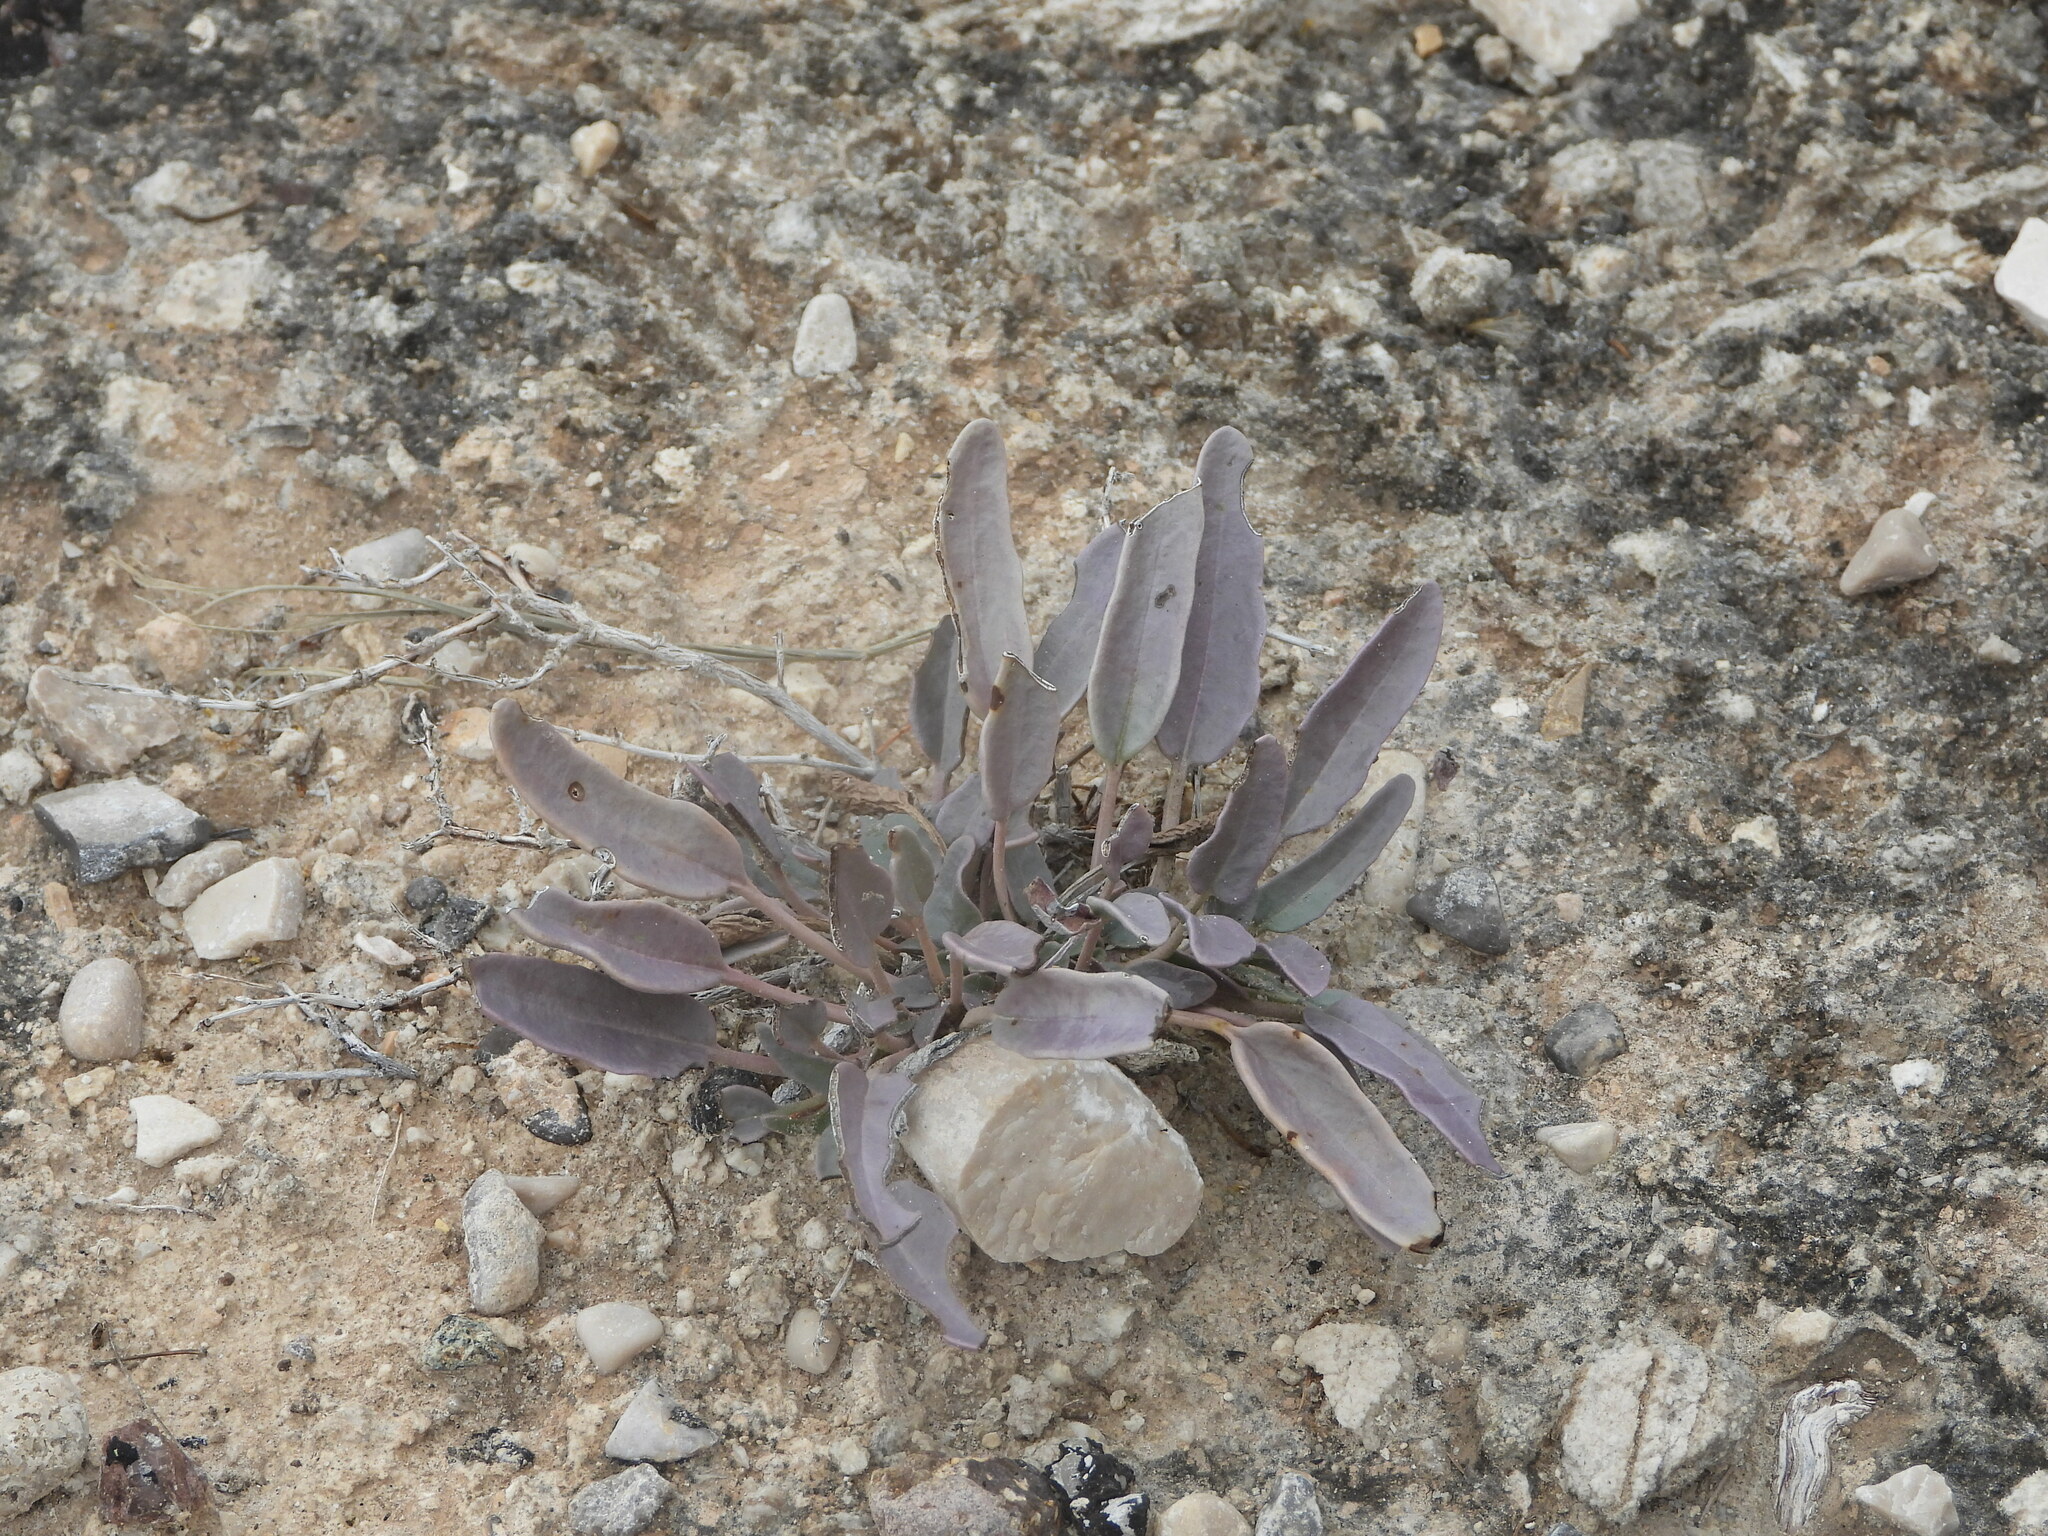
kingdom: Plantae
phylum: Tracheophyta
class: Magnoliopsida
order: Caryophyllales
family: Nyctaginaceae
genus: Abronia
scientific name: Abronia carletonii
